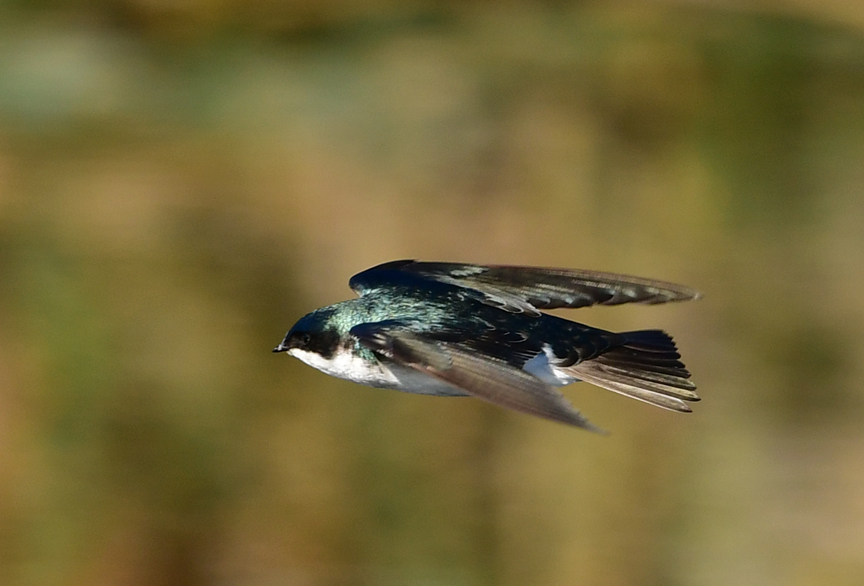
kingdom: Animalia
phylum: Chordata
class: Aves
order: Passeriformes
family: Hirundinidae
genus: Tachycineta
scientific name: Tachycineta bicolor
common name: Tree swallow
